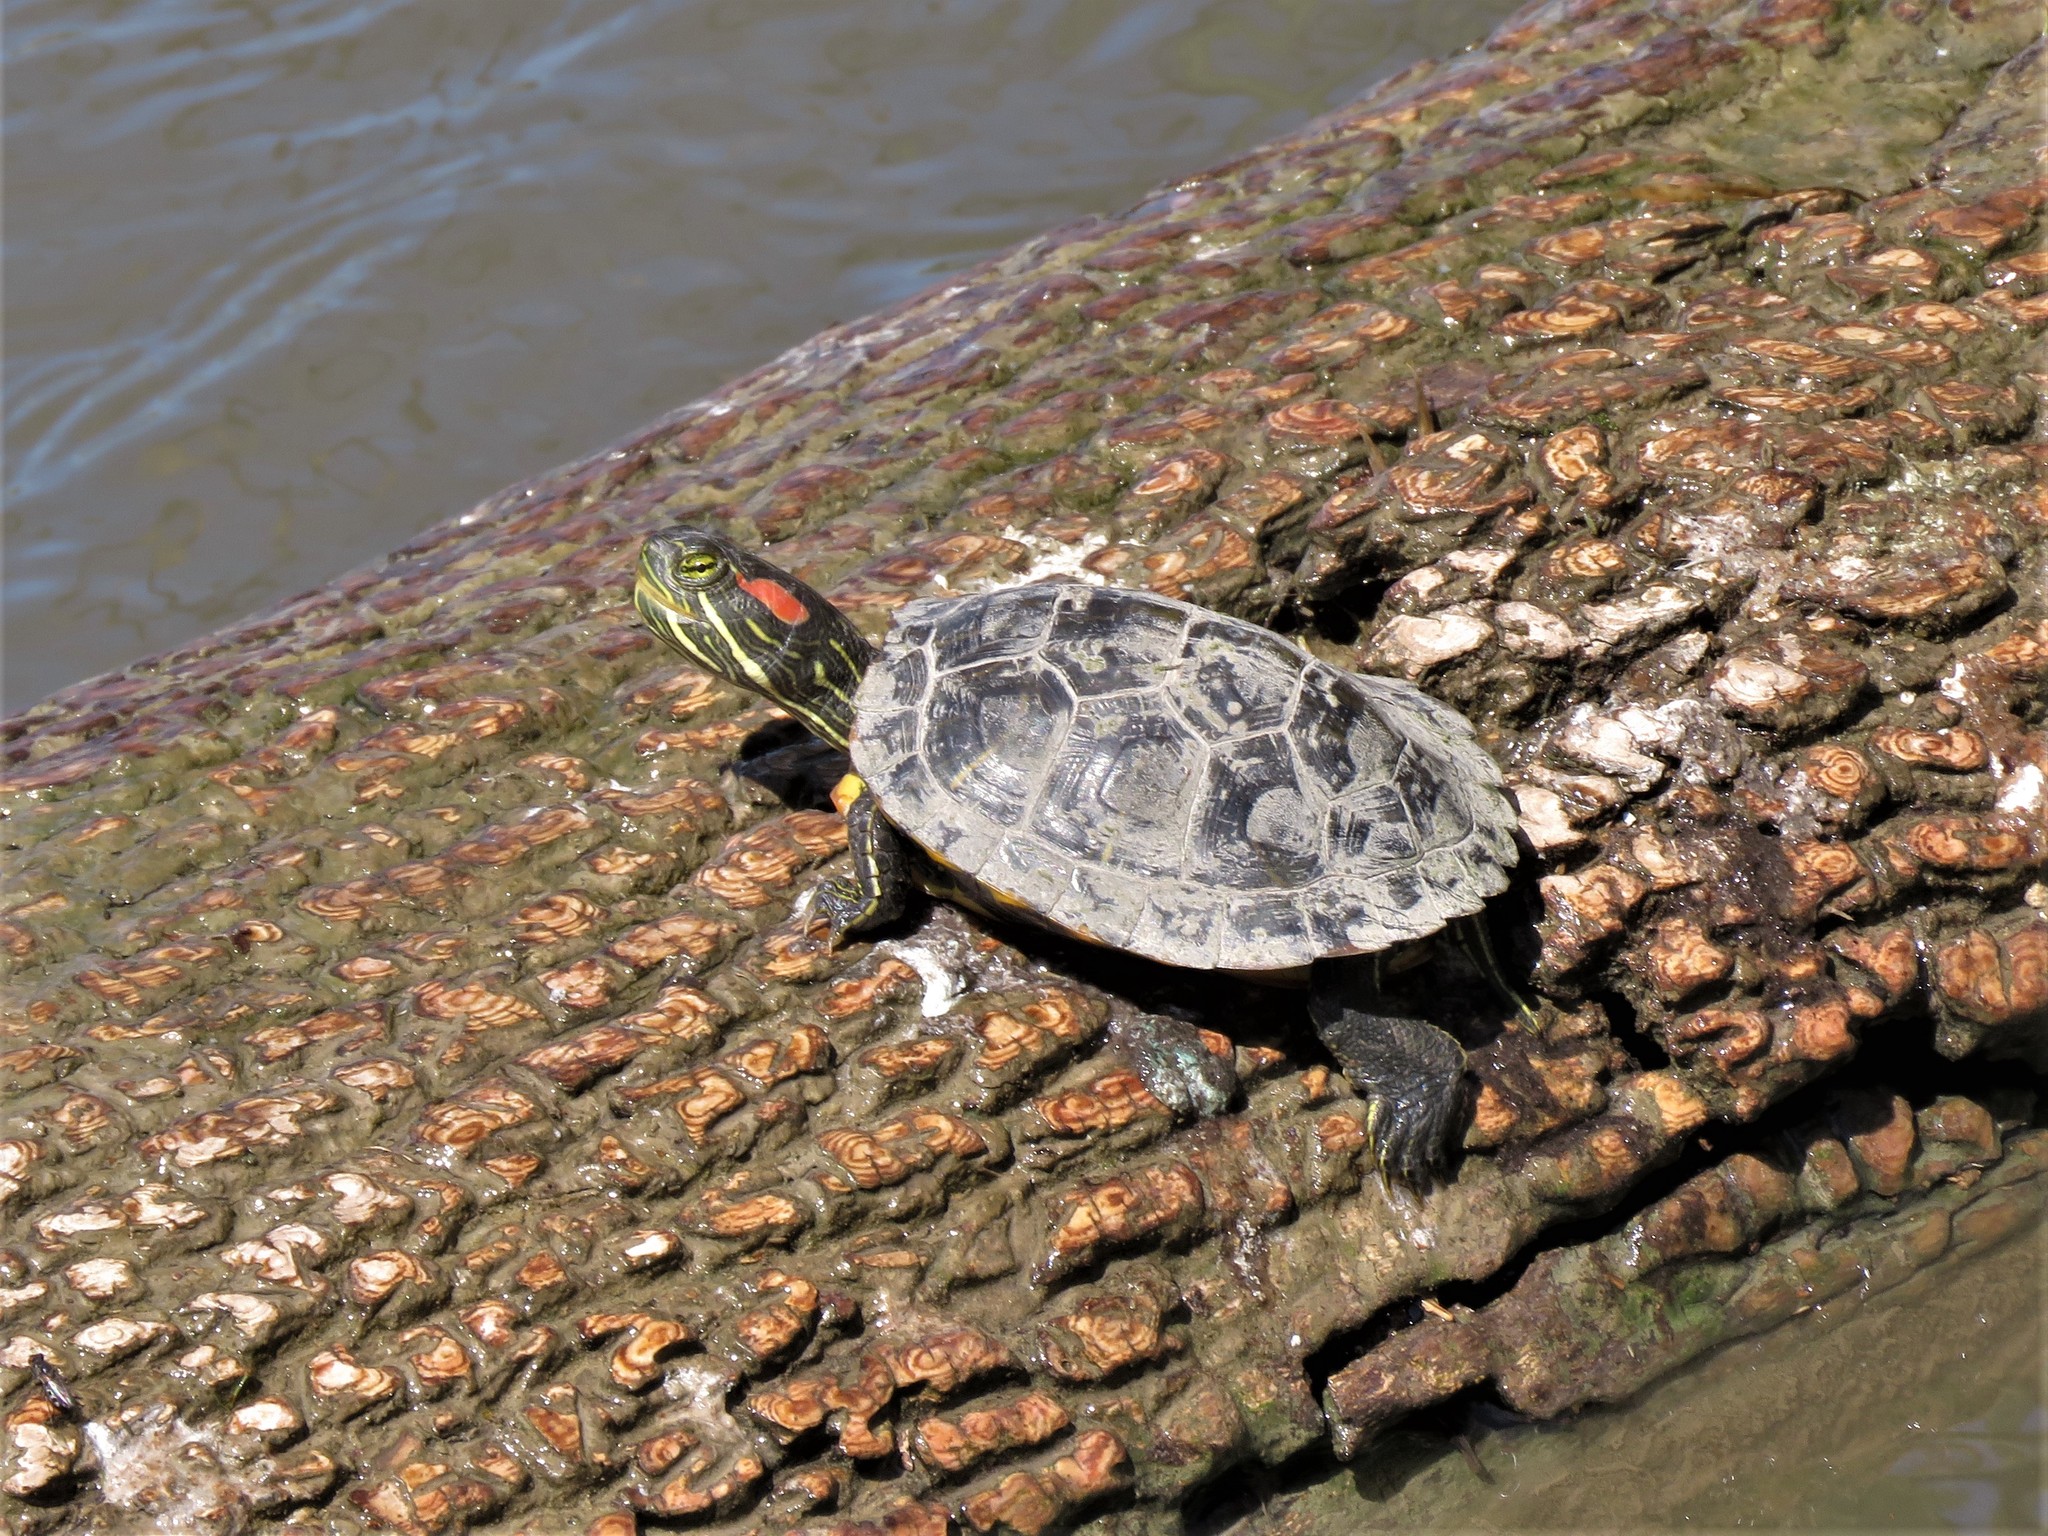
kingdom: Animalia
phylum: Chordata
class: Testudines
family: Emydidae
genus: Trachemys
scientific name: Trachemys scripta
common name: Slider
